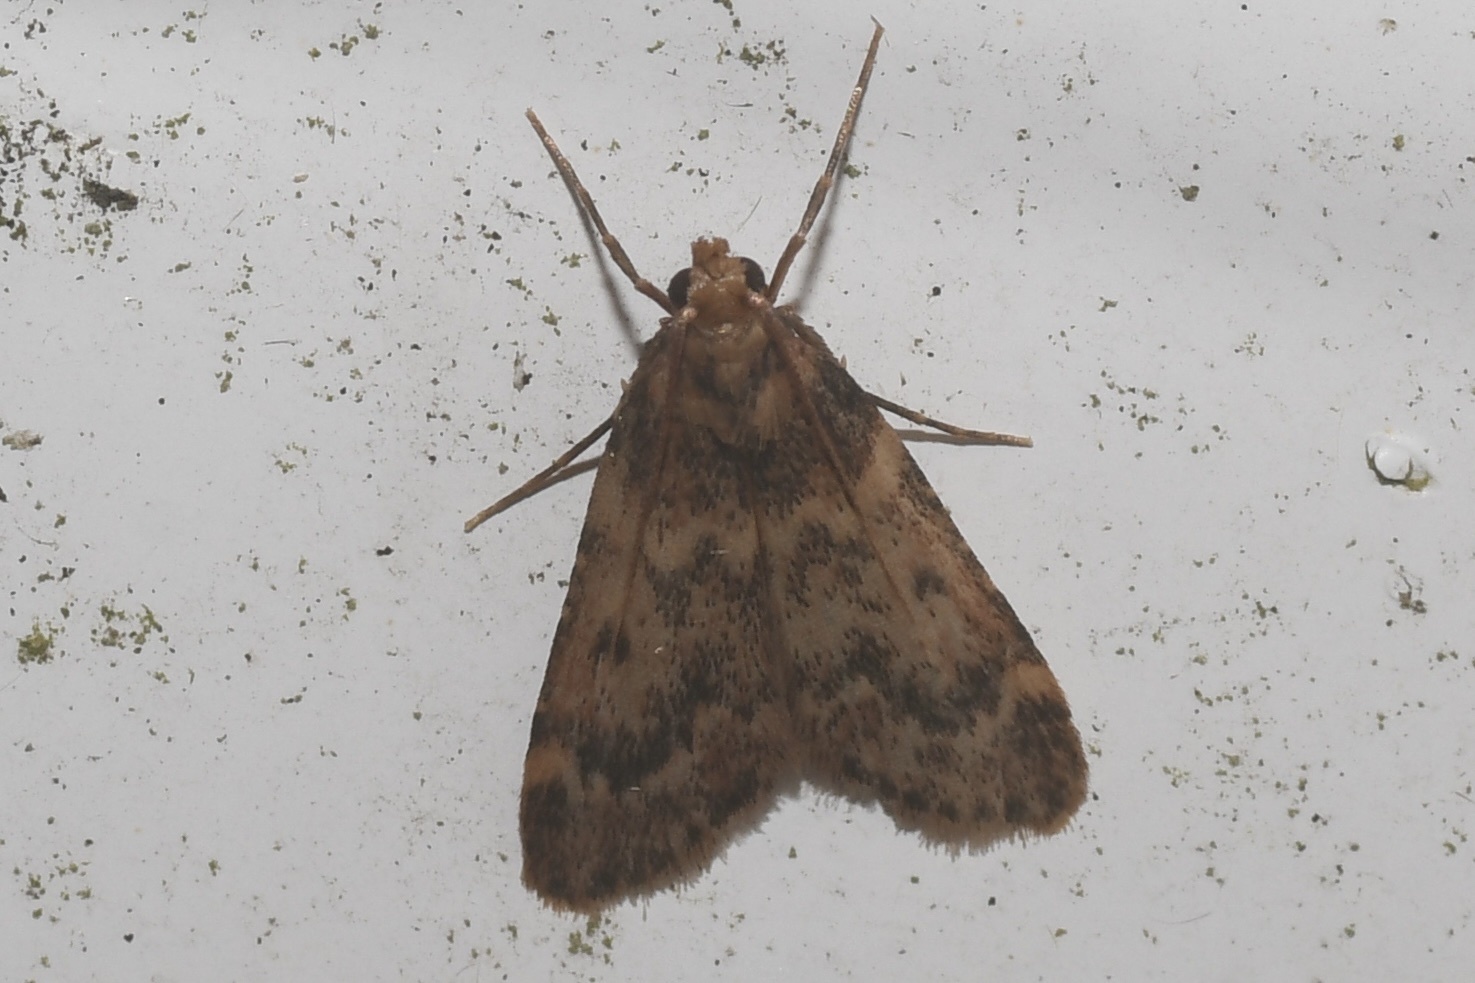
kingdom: Animalia
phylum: Arthropoda
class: Insecta
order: Lepidoptera
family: Pyralidae
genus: Aglossa
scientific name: Aglossa disciferalis
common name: Pink-masked pyralid moth
